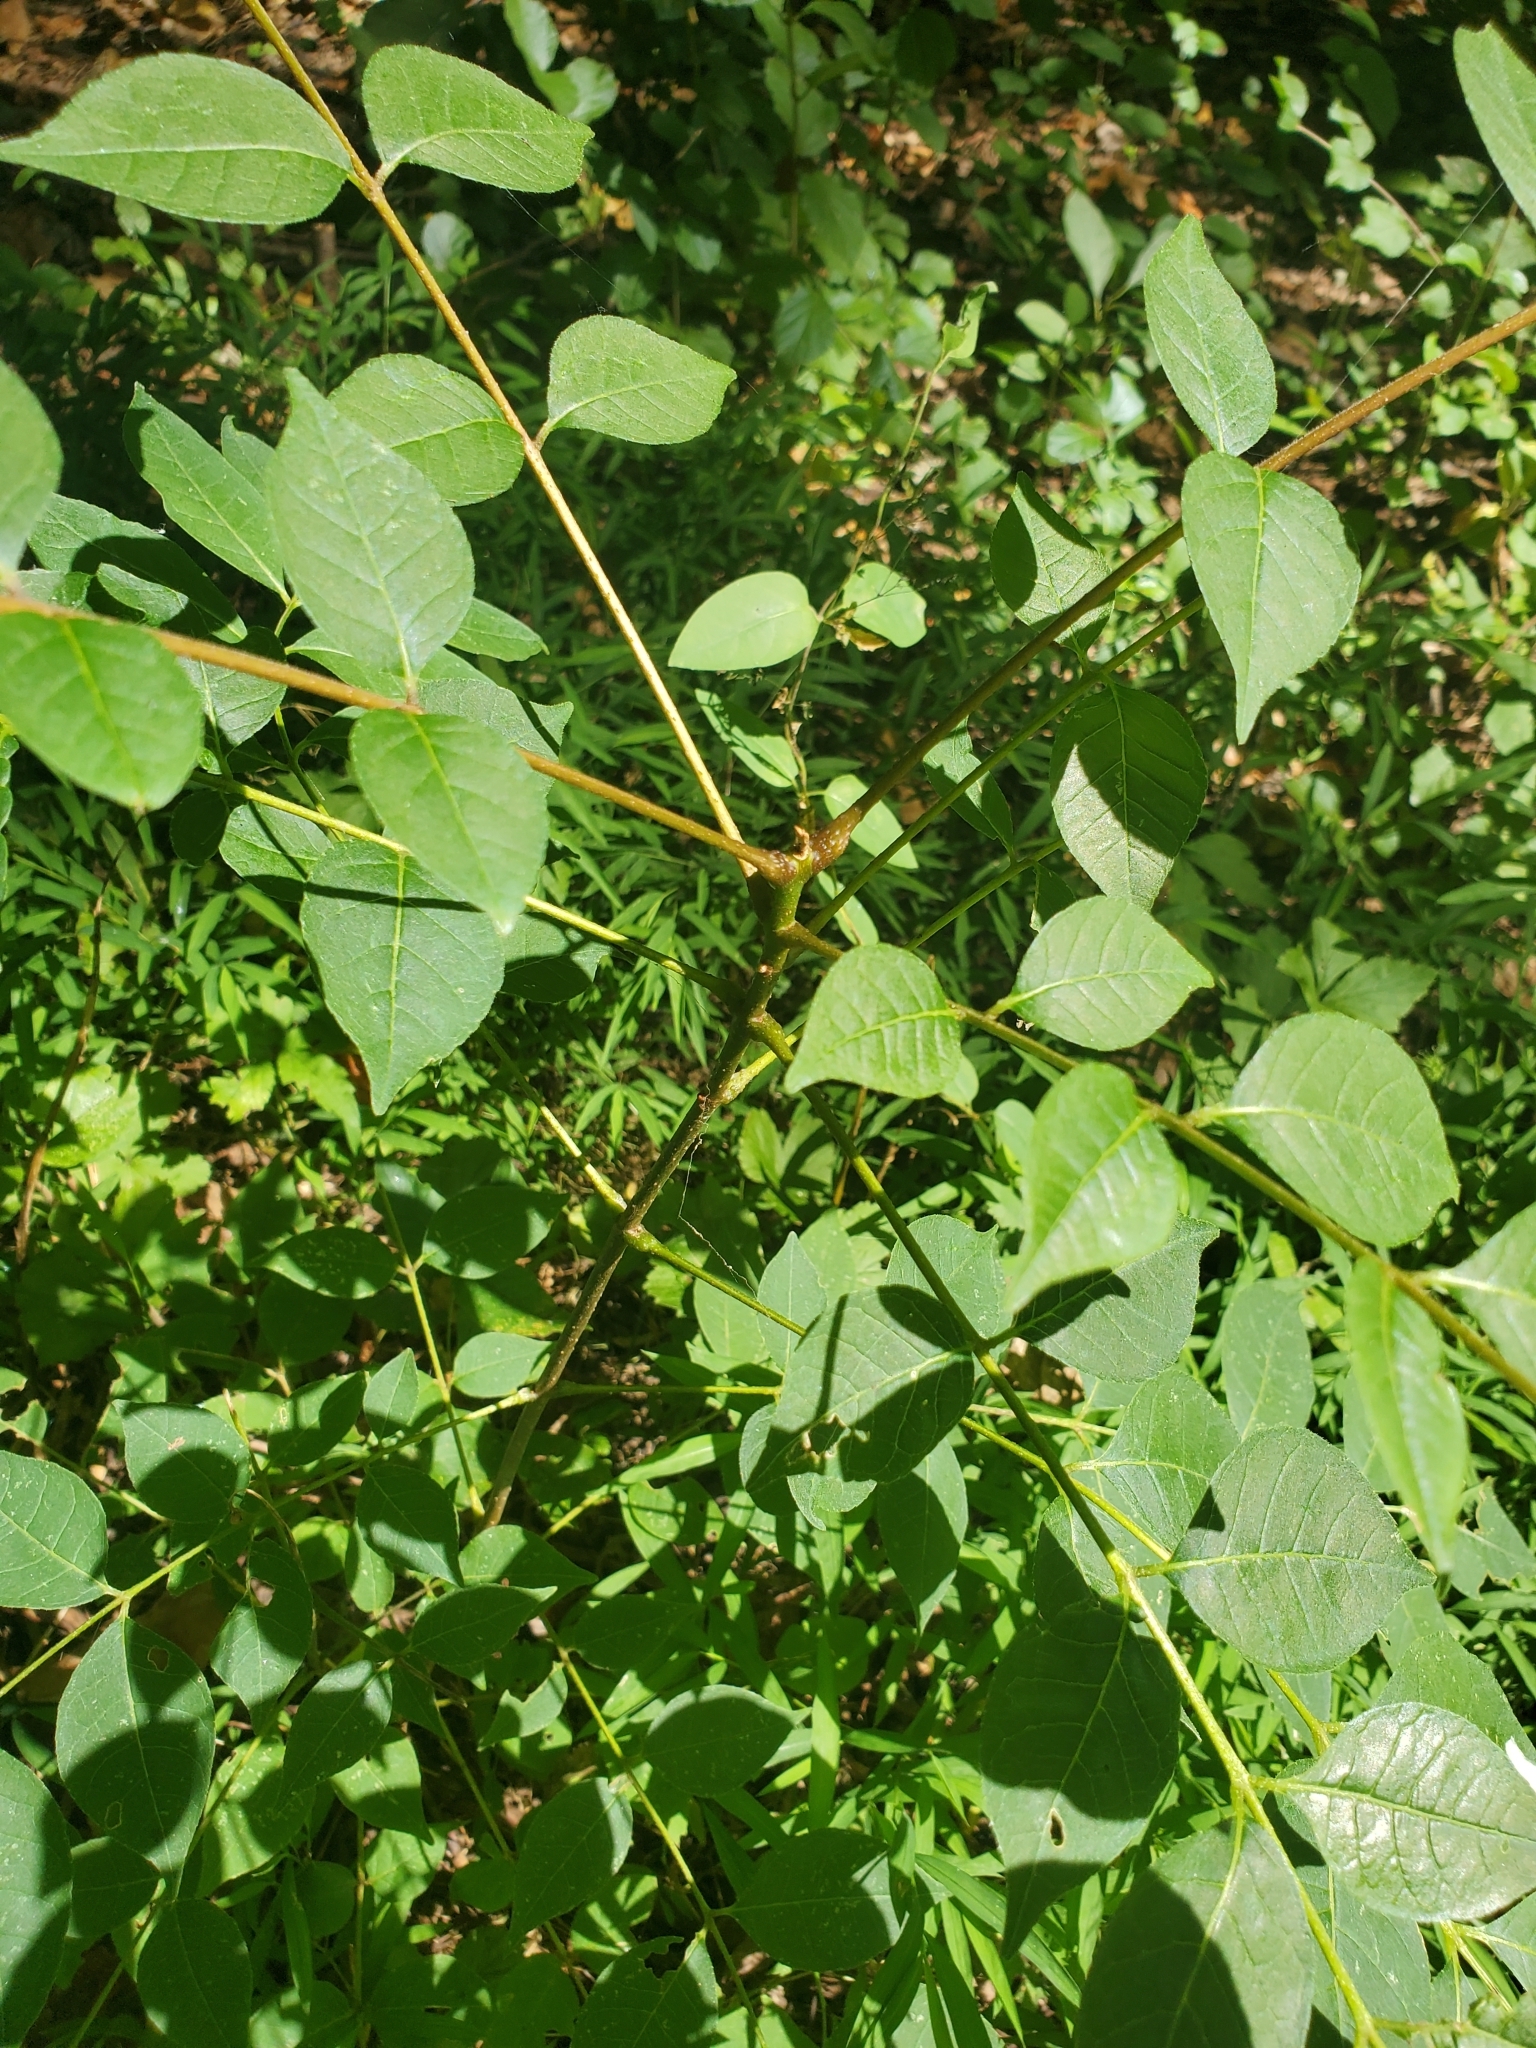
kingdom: Plantae
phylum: Tracheophyta
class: Magnoliopsida
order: Sapindales
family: Rutaceae
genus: Phellodendron
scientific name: Phellodendron amurense
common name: Amur corktree
